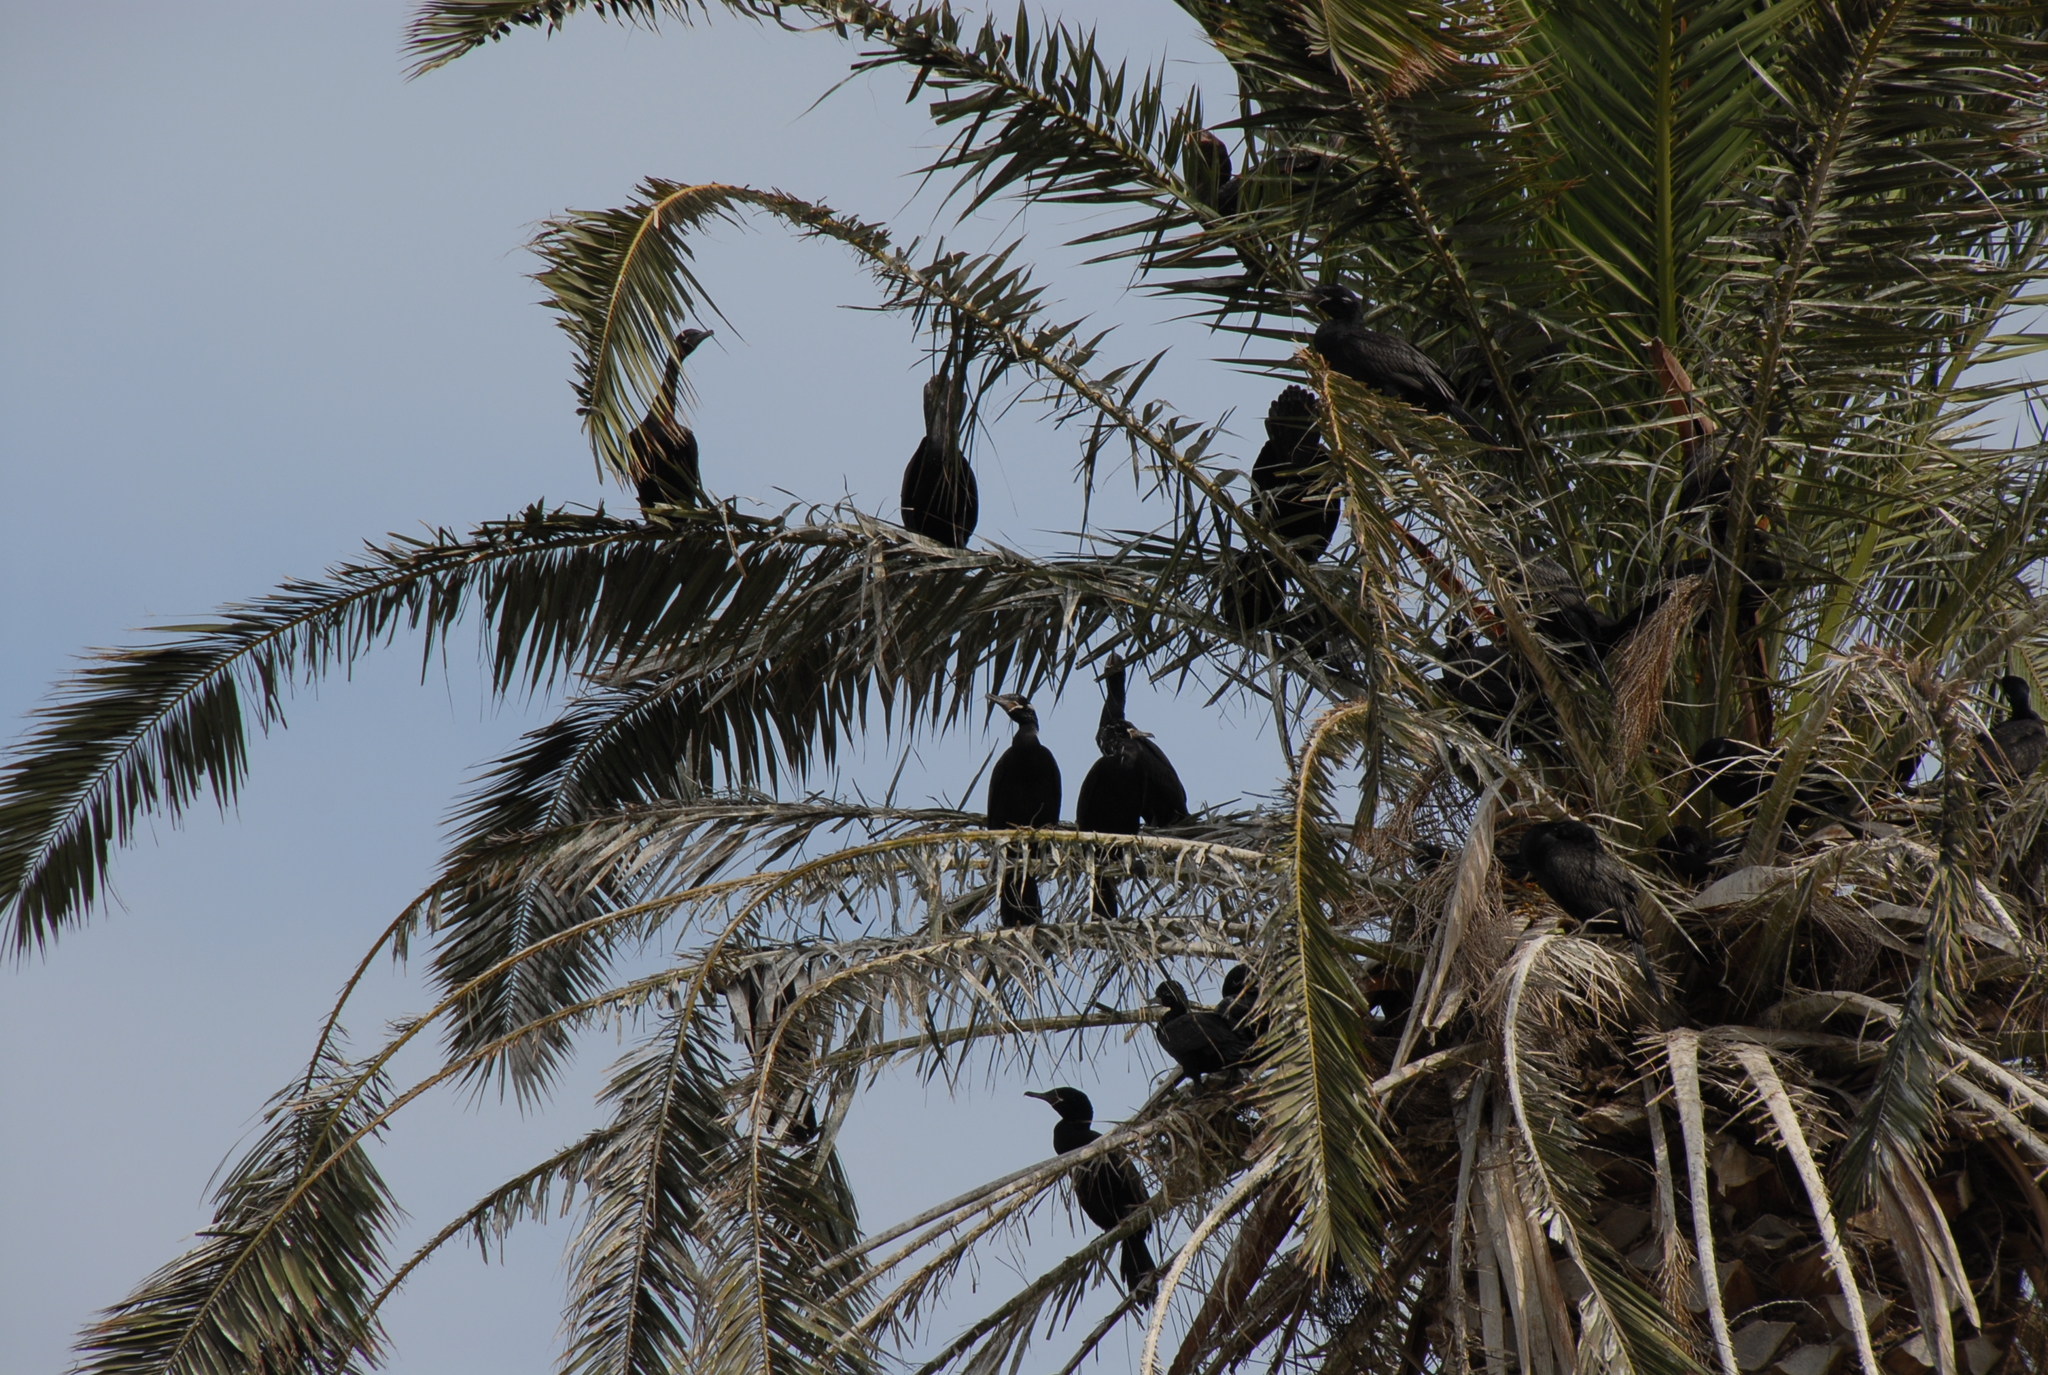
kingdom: Animalia
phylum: Chordata
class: Aves
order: Suliformes
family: Phalacrocoracidae
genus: Phalacrocorax
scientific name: Phalacrocorax brasilianus
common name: Neotropic cormorant
